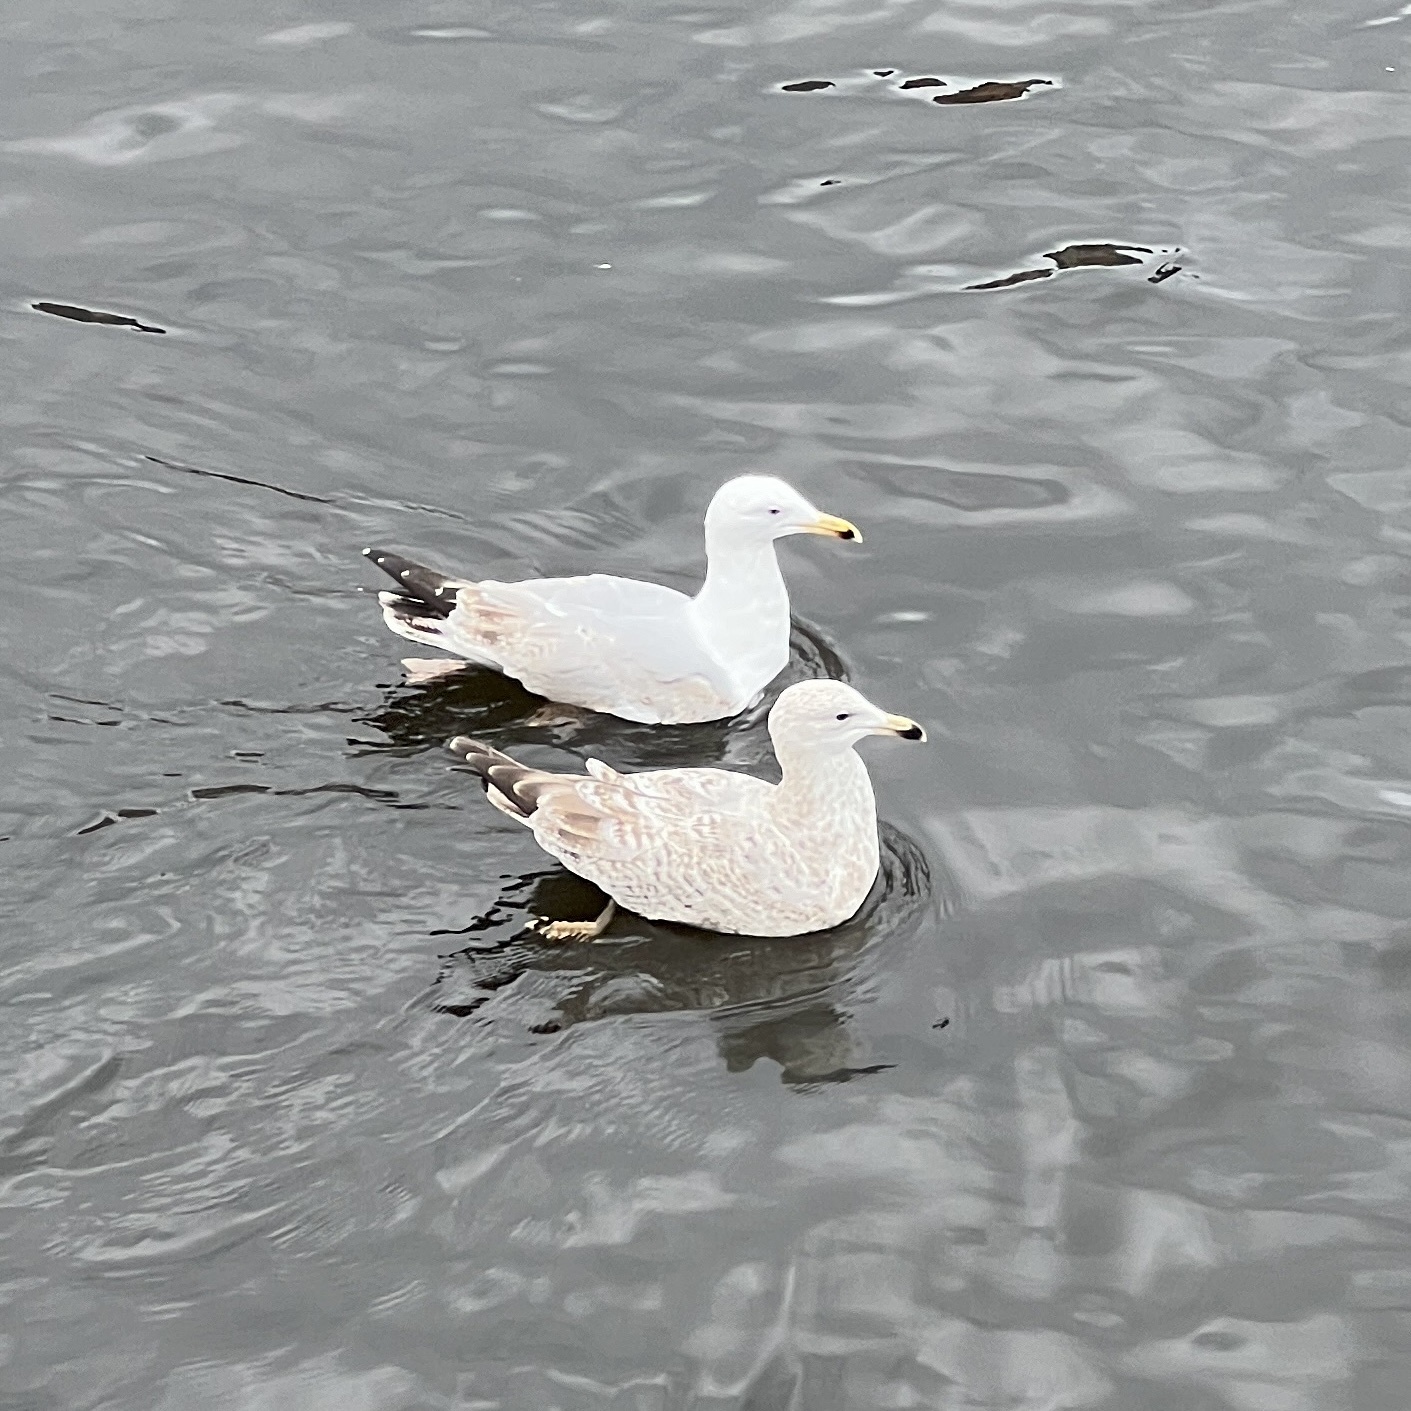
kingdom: Animalia
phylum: Chordata
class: Aves
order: Charadriiformes
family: Laridae
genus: Larus
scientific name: Larus argentatus
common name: Herring gull
